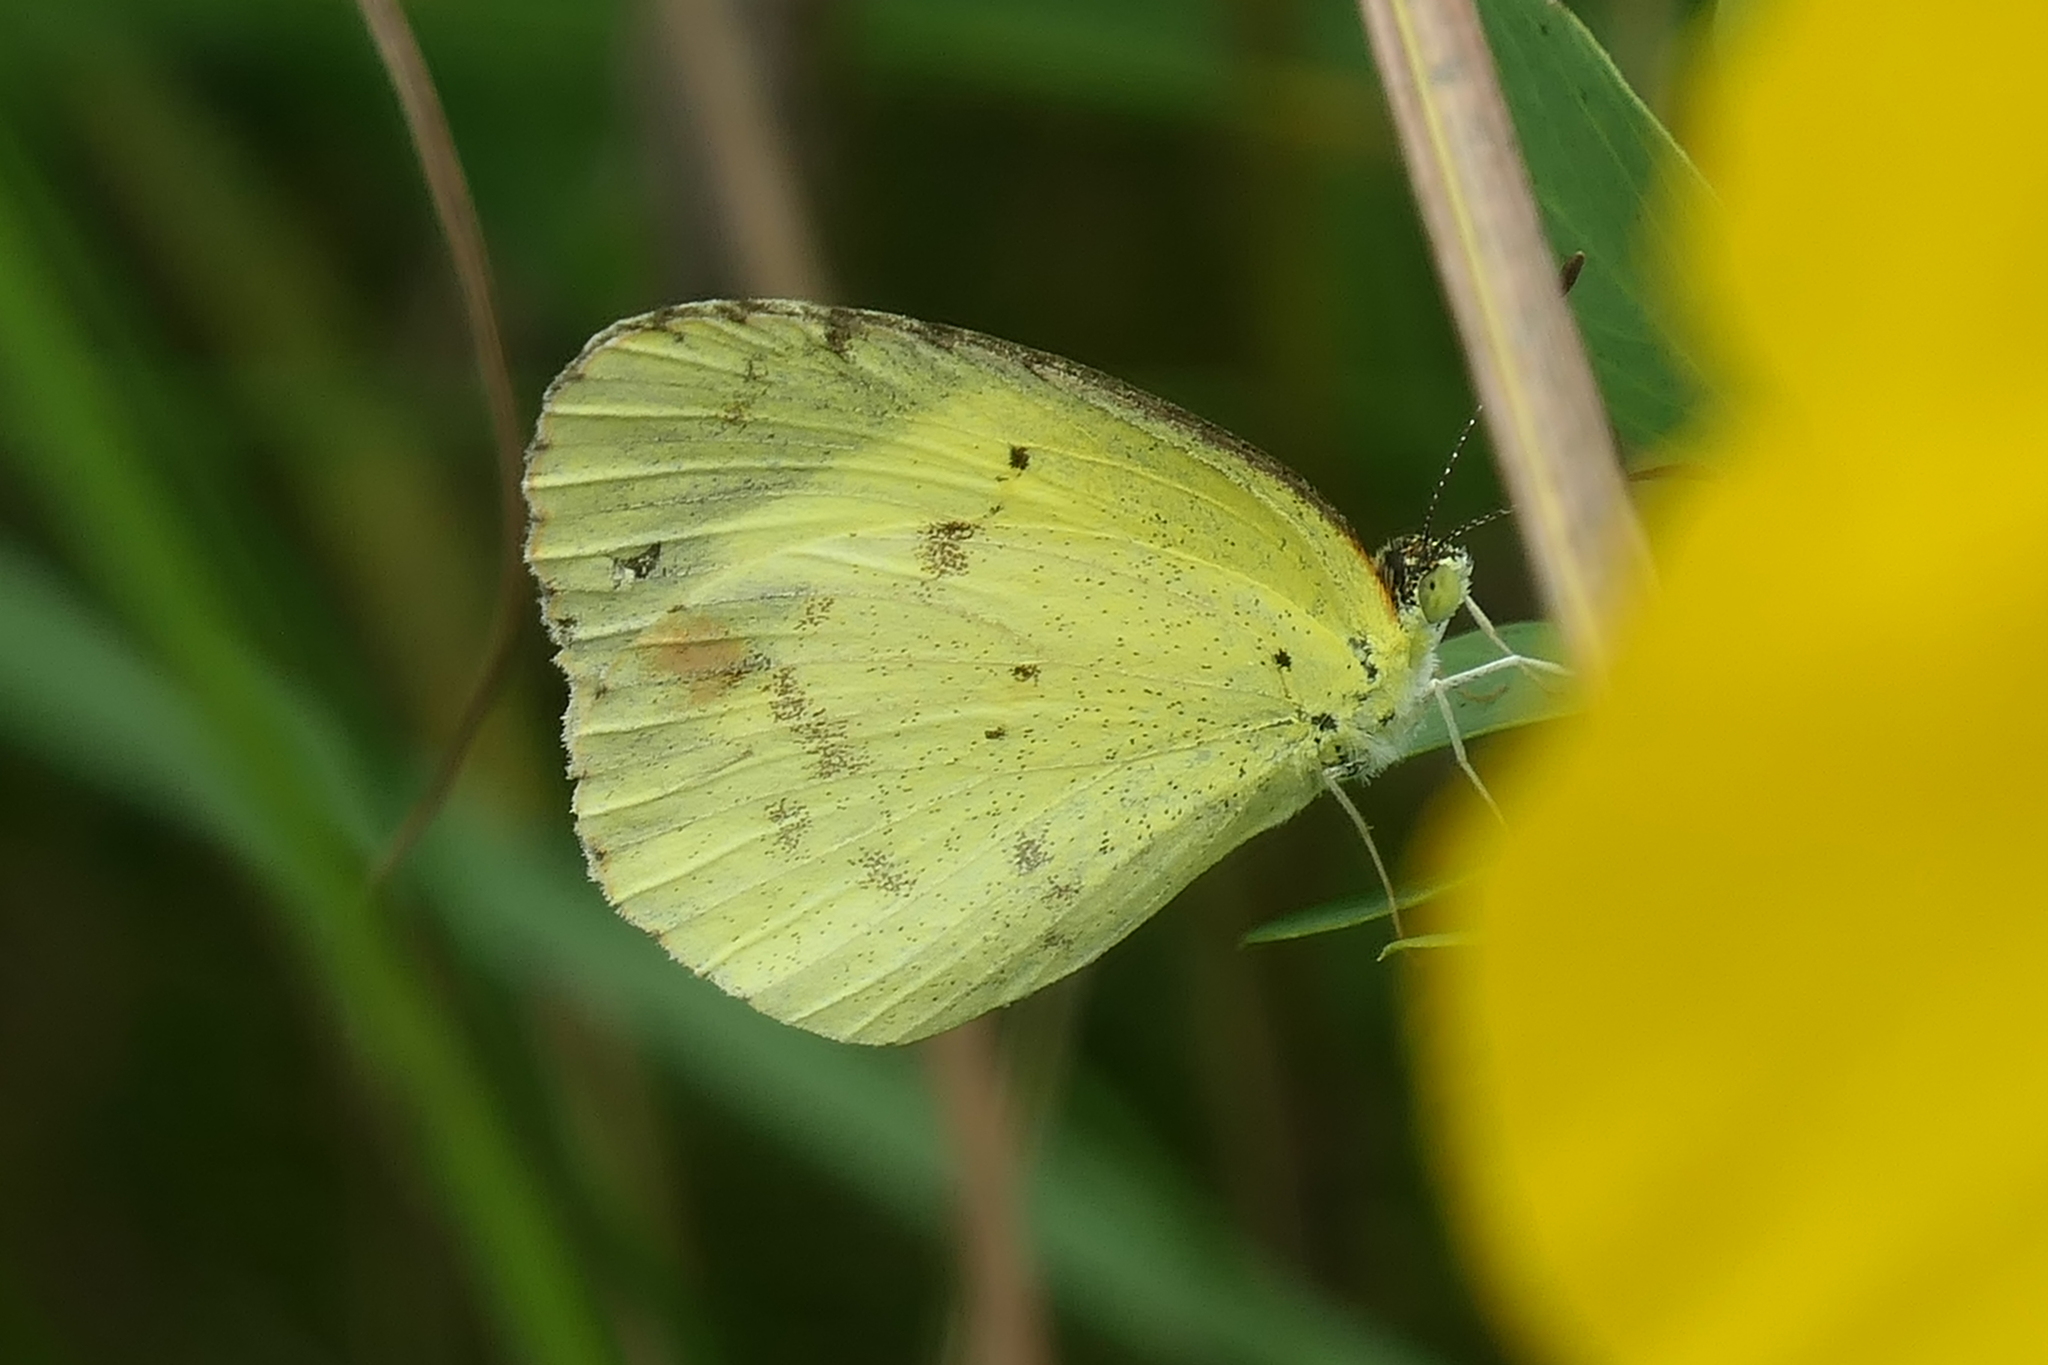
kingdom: Animalia
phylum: Arthropoda
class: Insecta
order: Lepidoptera
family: Pieridae
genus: Pyrisitia
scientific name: Pyrisitia lisa
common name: Little yellow
